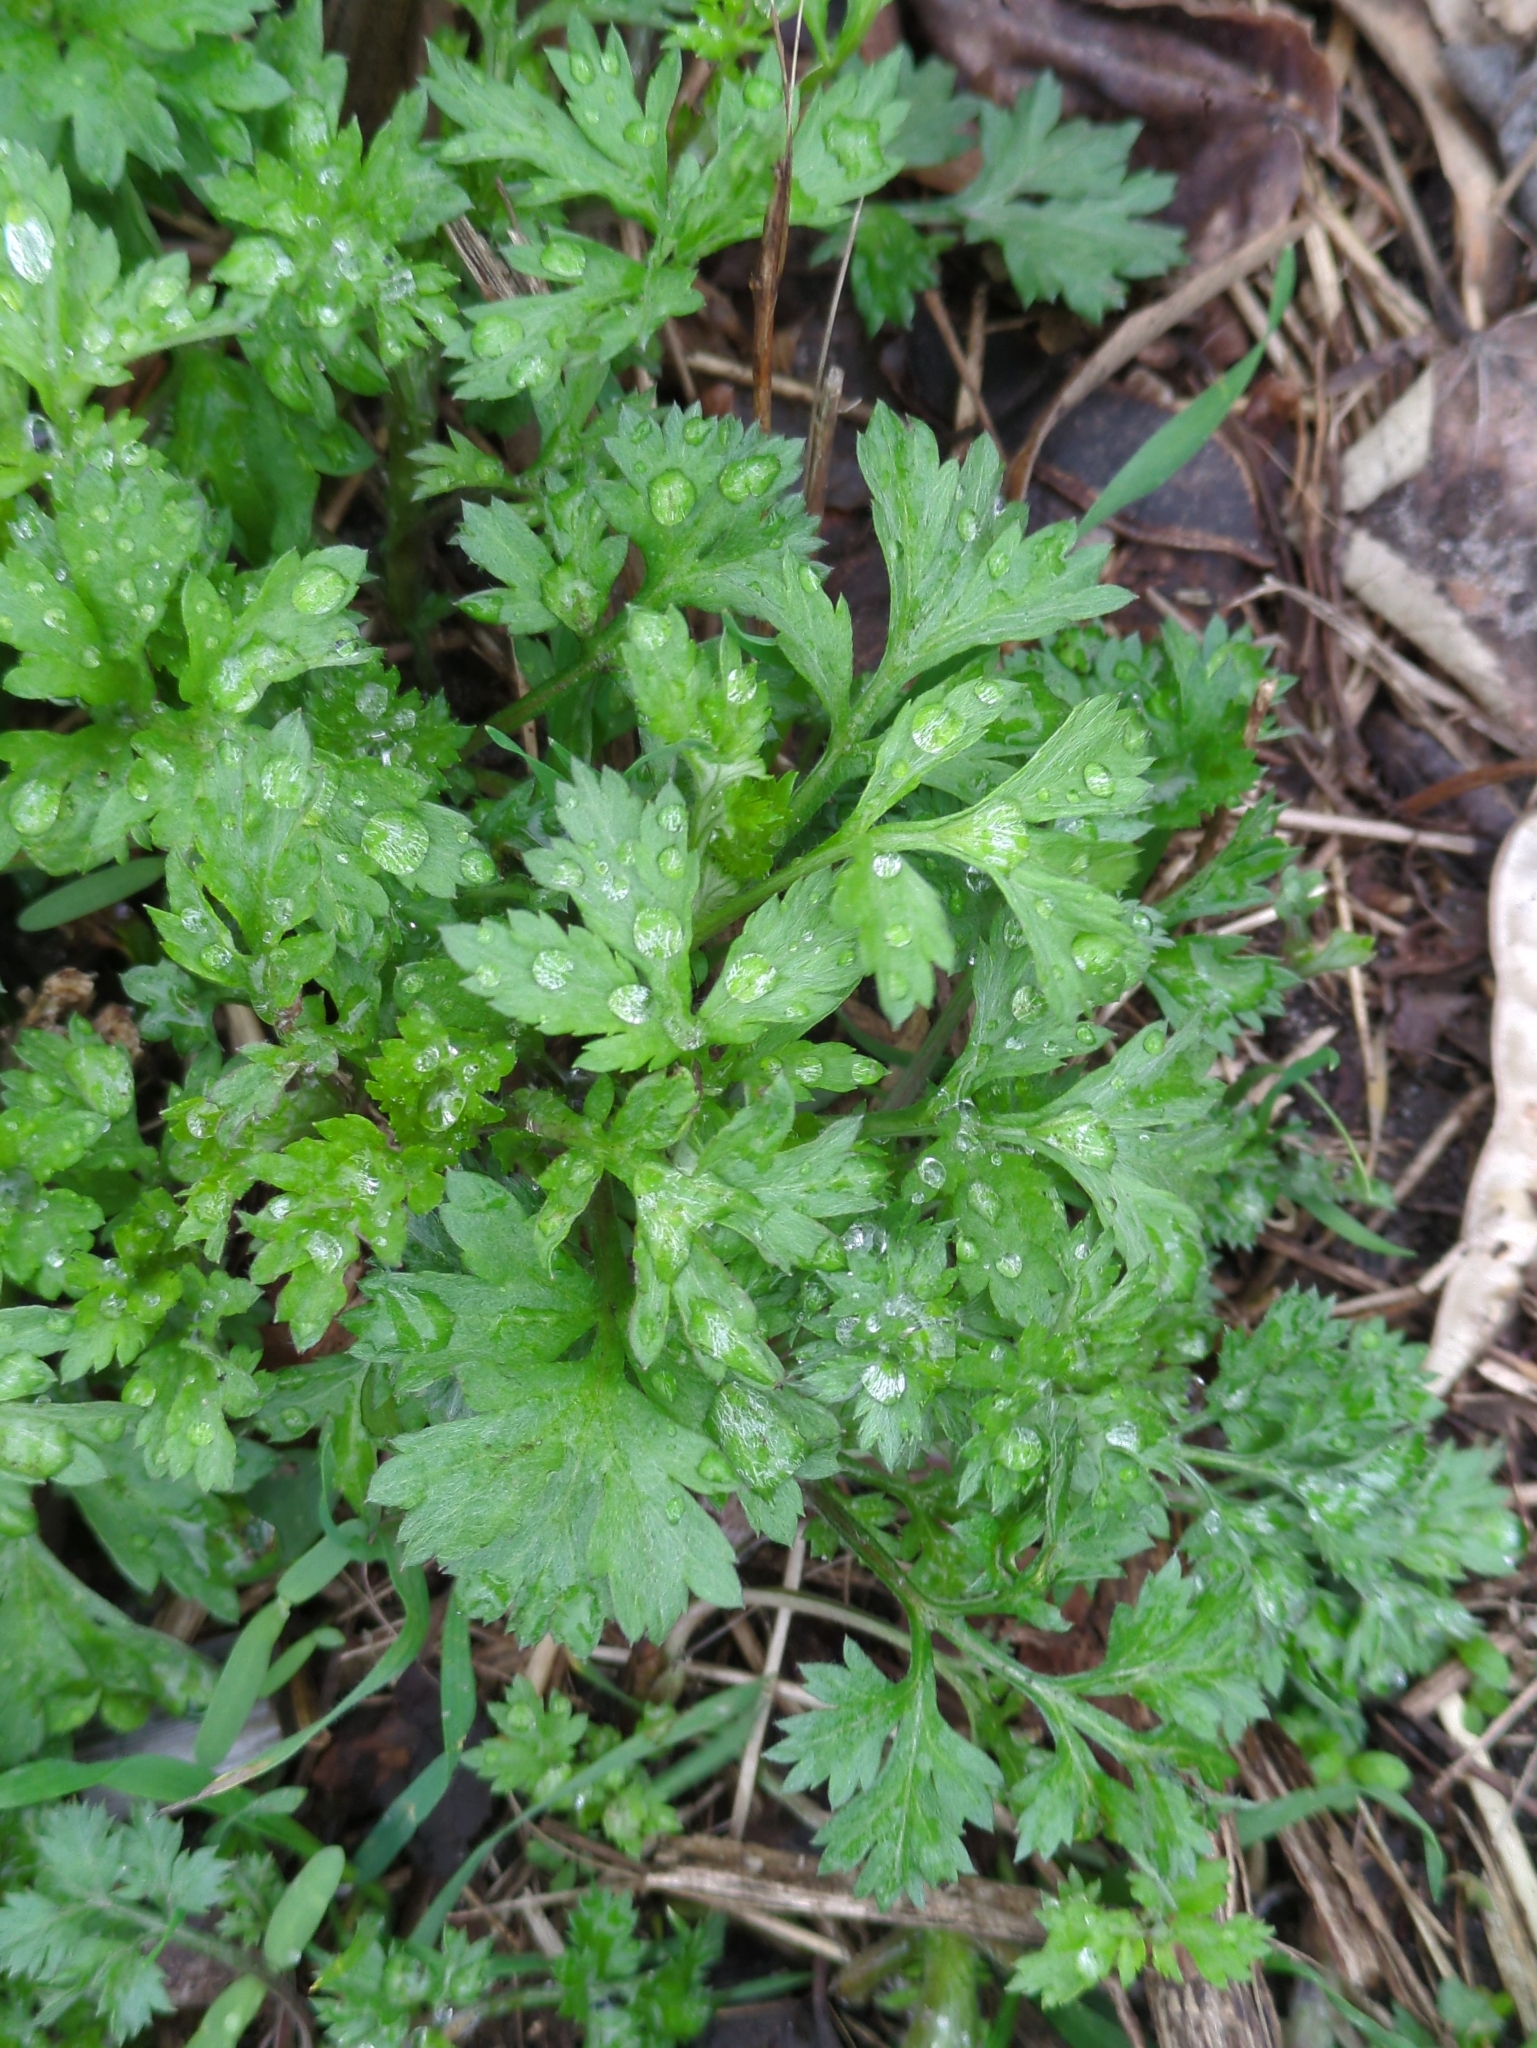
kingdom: Plantae
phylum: Tracheophyta
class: Magnoliopsida
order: Asterales
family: Asteraceae
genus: Artemisia
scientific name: Artemisia vulgaris
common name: Mugwort
